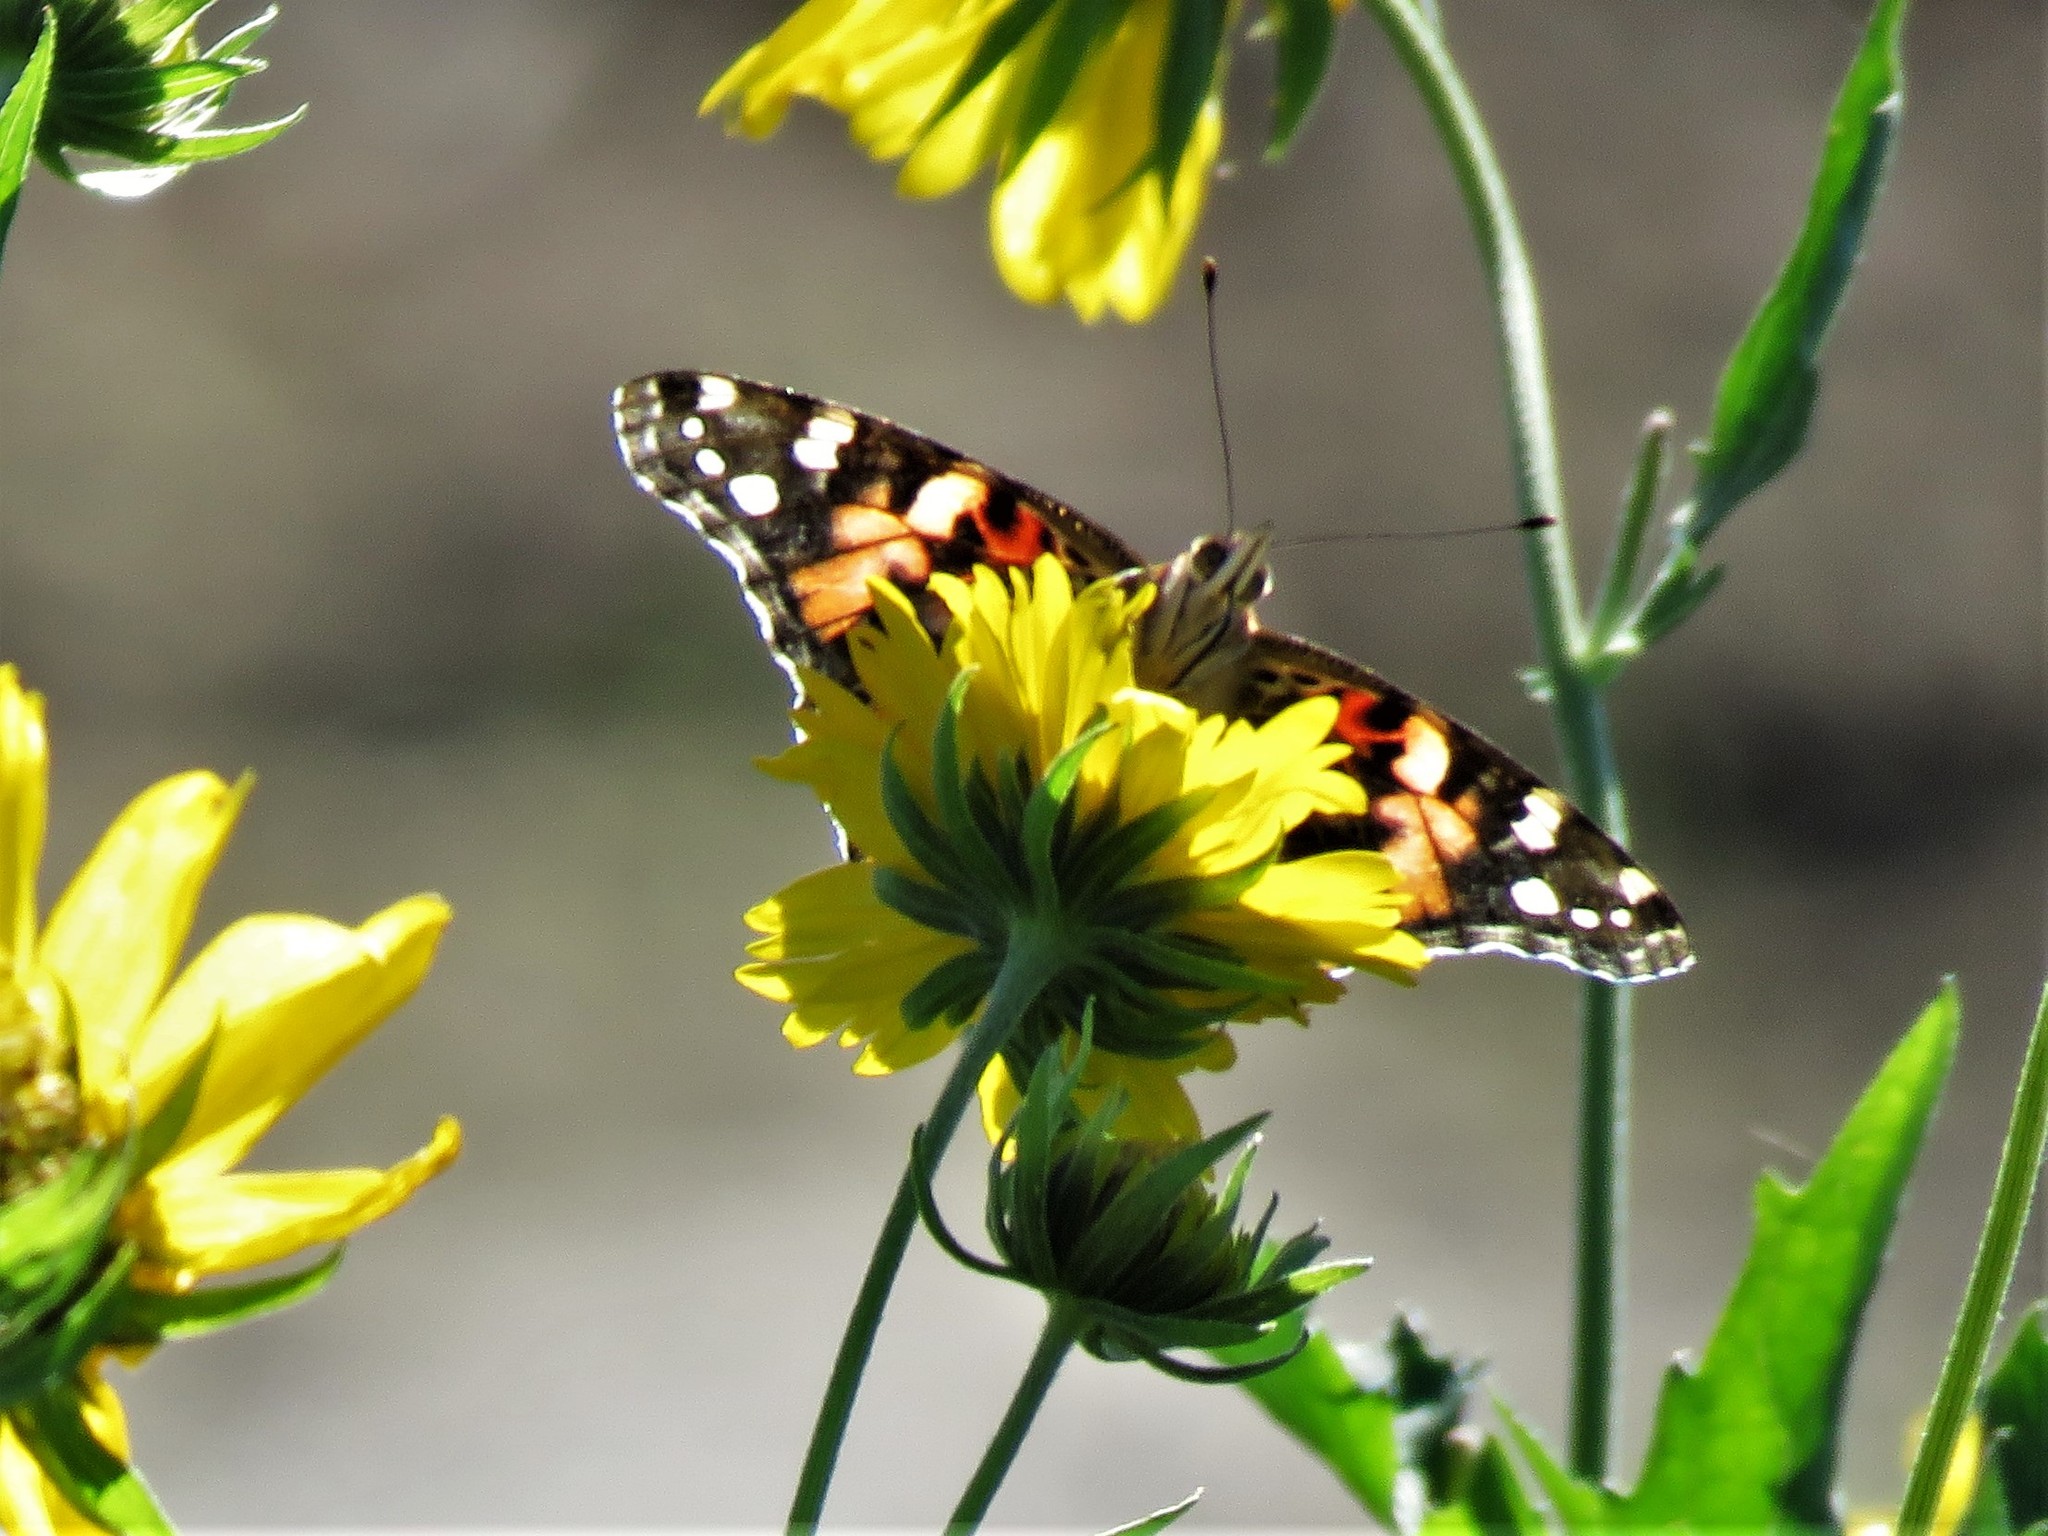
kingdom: Animalia
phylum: Arthropoda
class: Insecta
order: Lepidoptera
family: Nymphalidae
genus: Vanessa
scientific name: Vanessa cardui
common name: Painted lady
